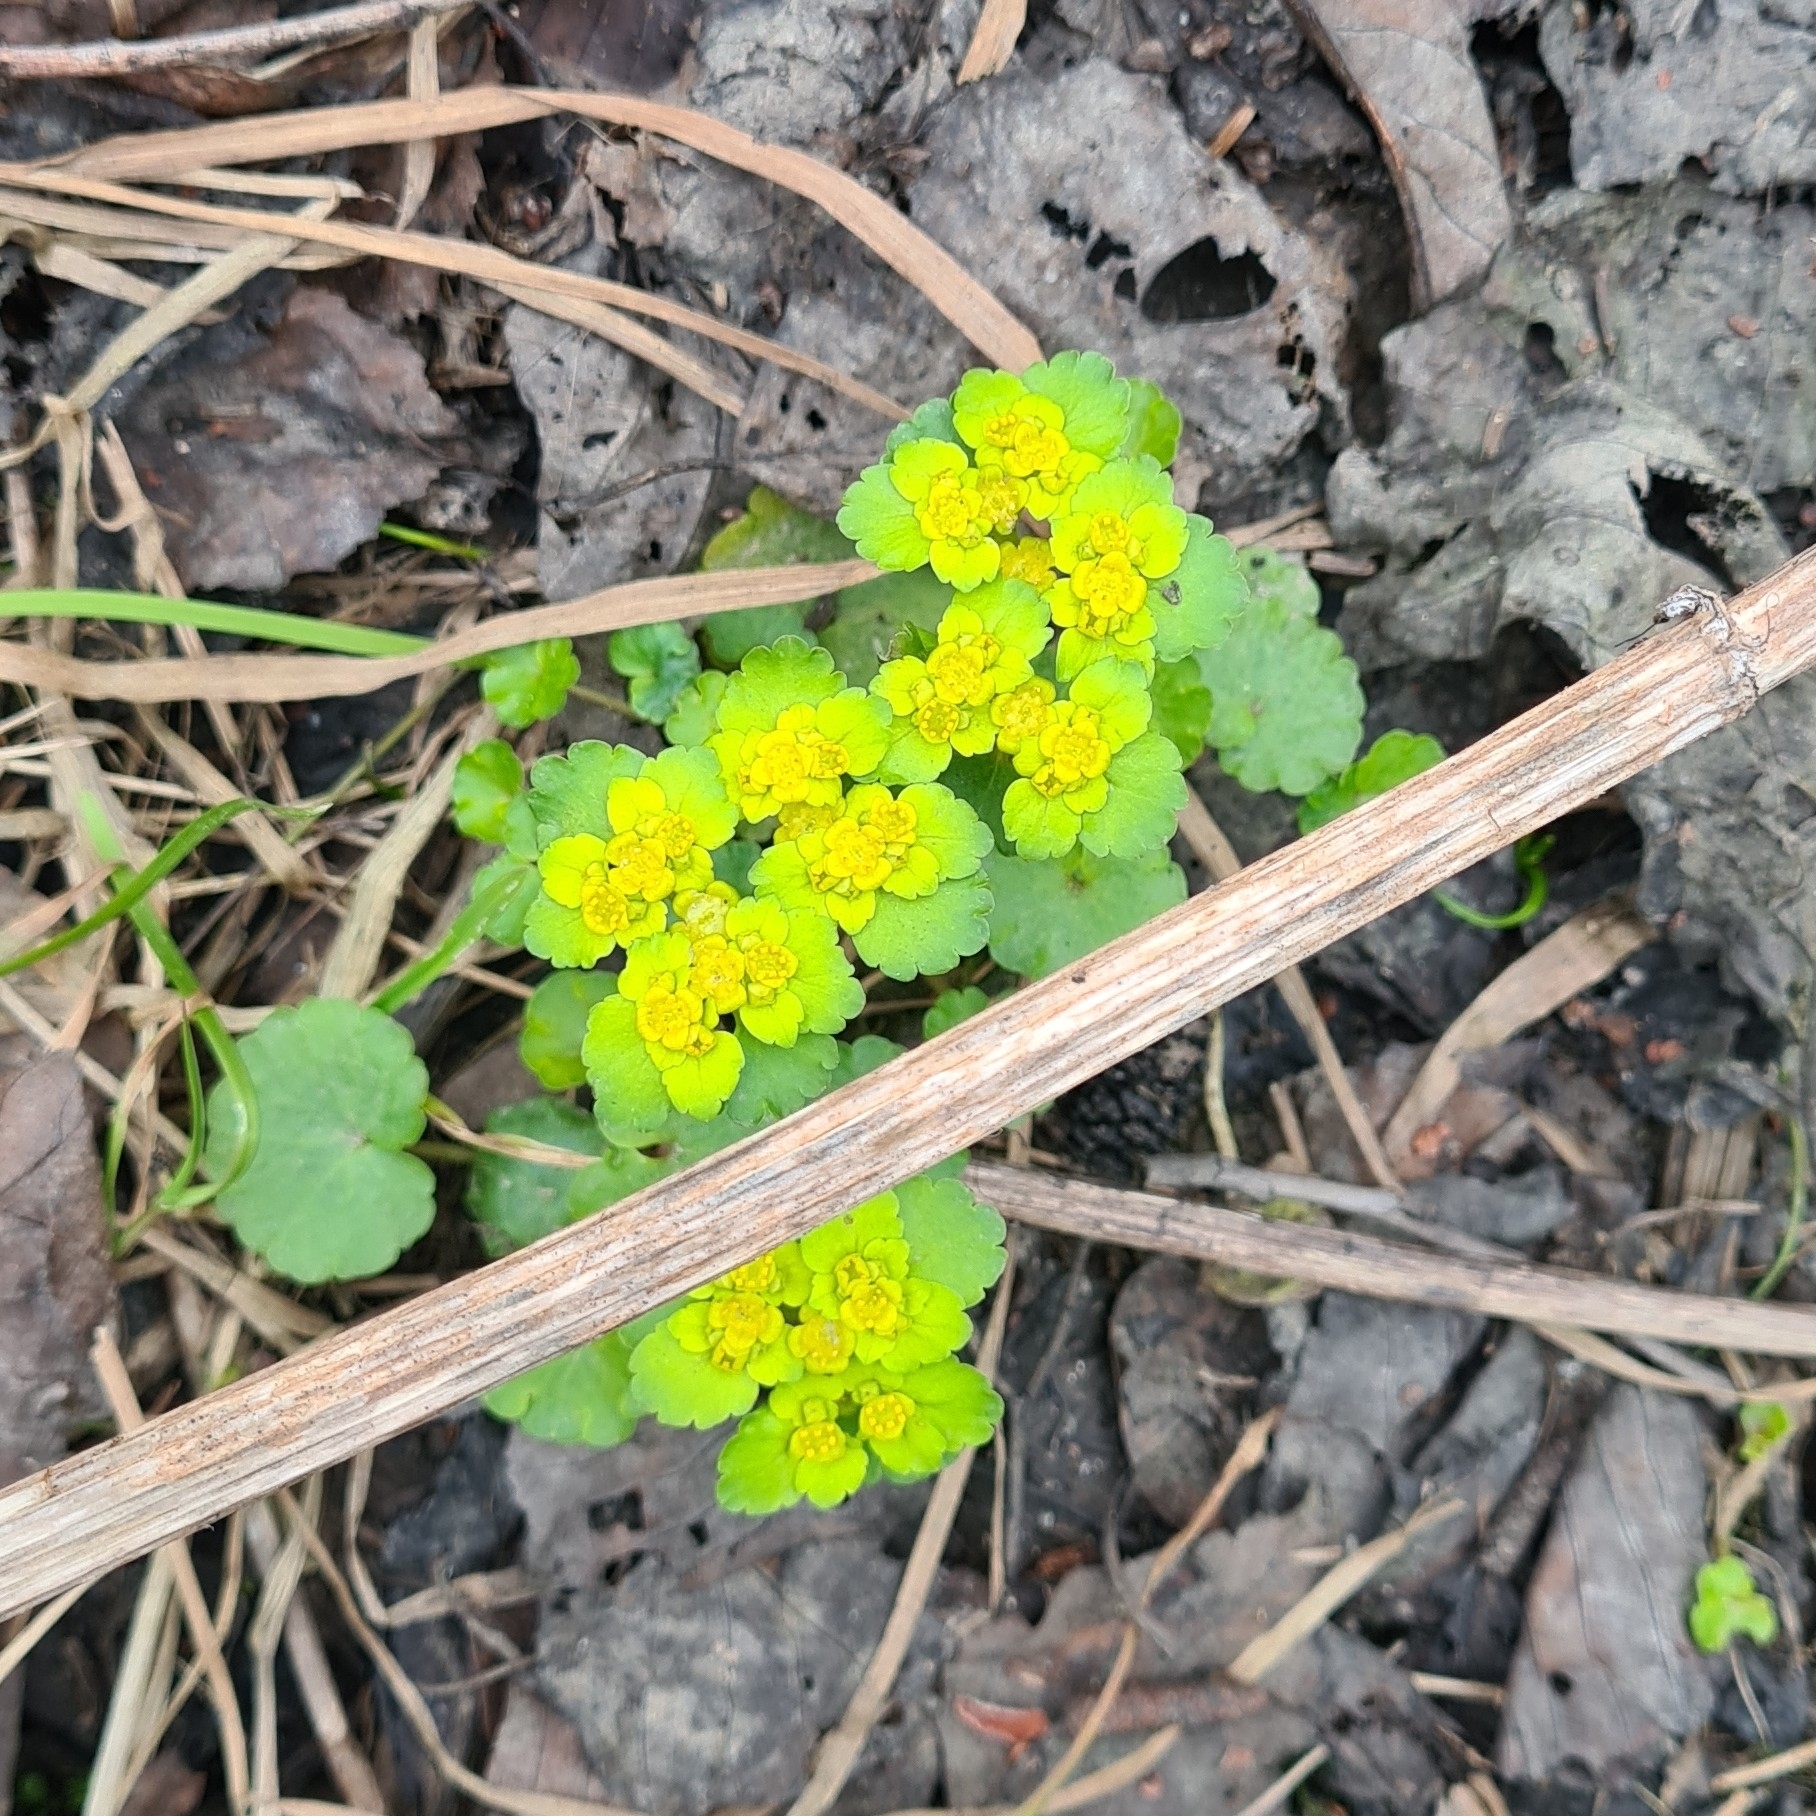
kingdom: Plantae
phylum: Tracheophyta
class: Magnoliopsida
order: Saxifragales
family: Saxifragaceae
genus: Chrysosplenium
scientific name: Chrysosplenium alternifolium
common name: Alternate-leaved golden-saxifrage
